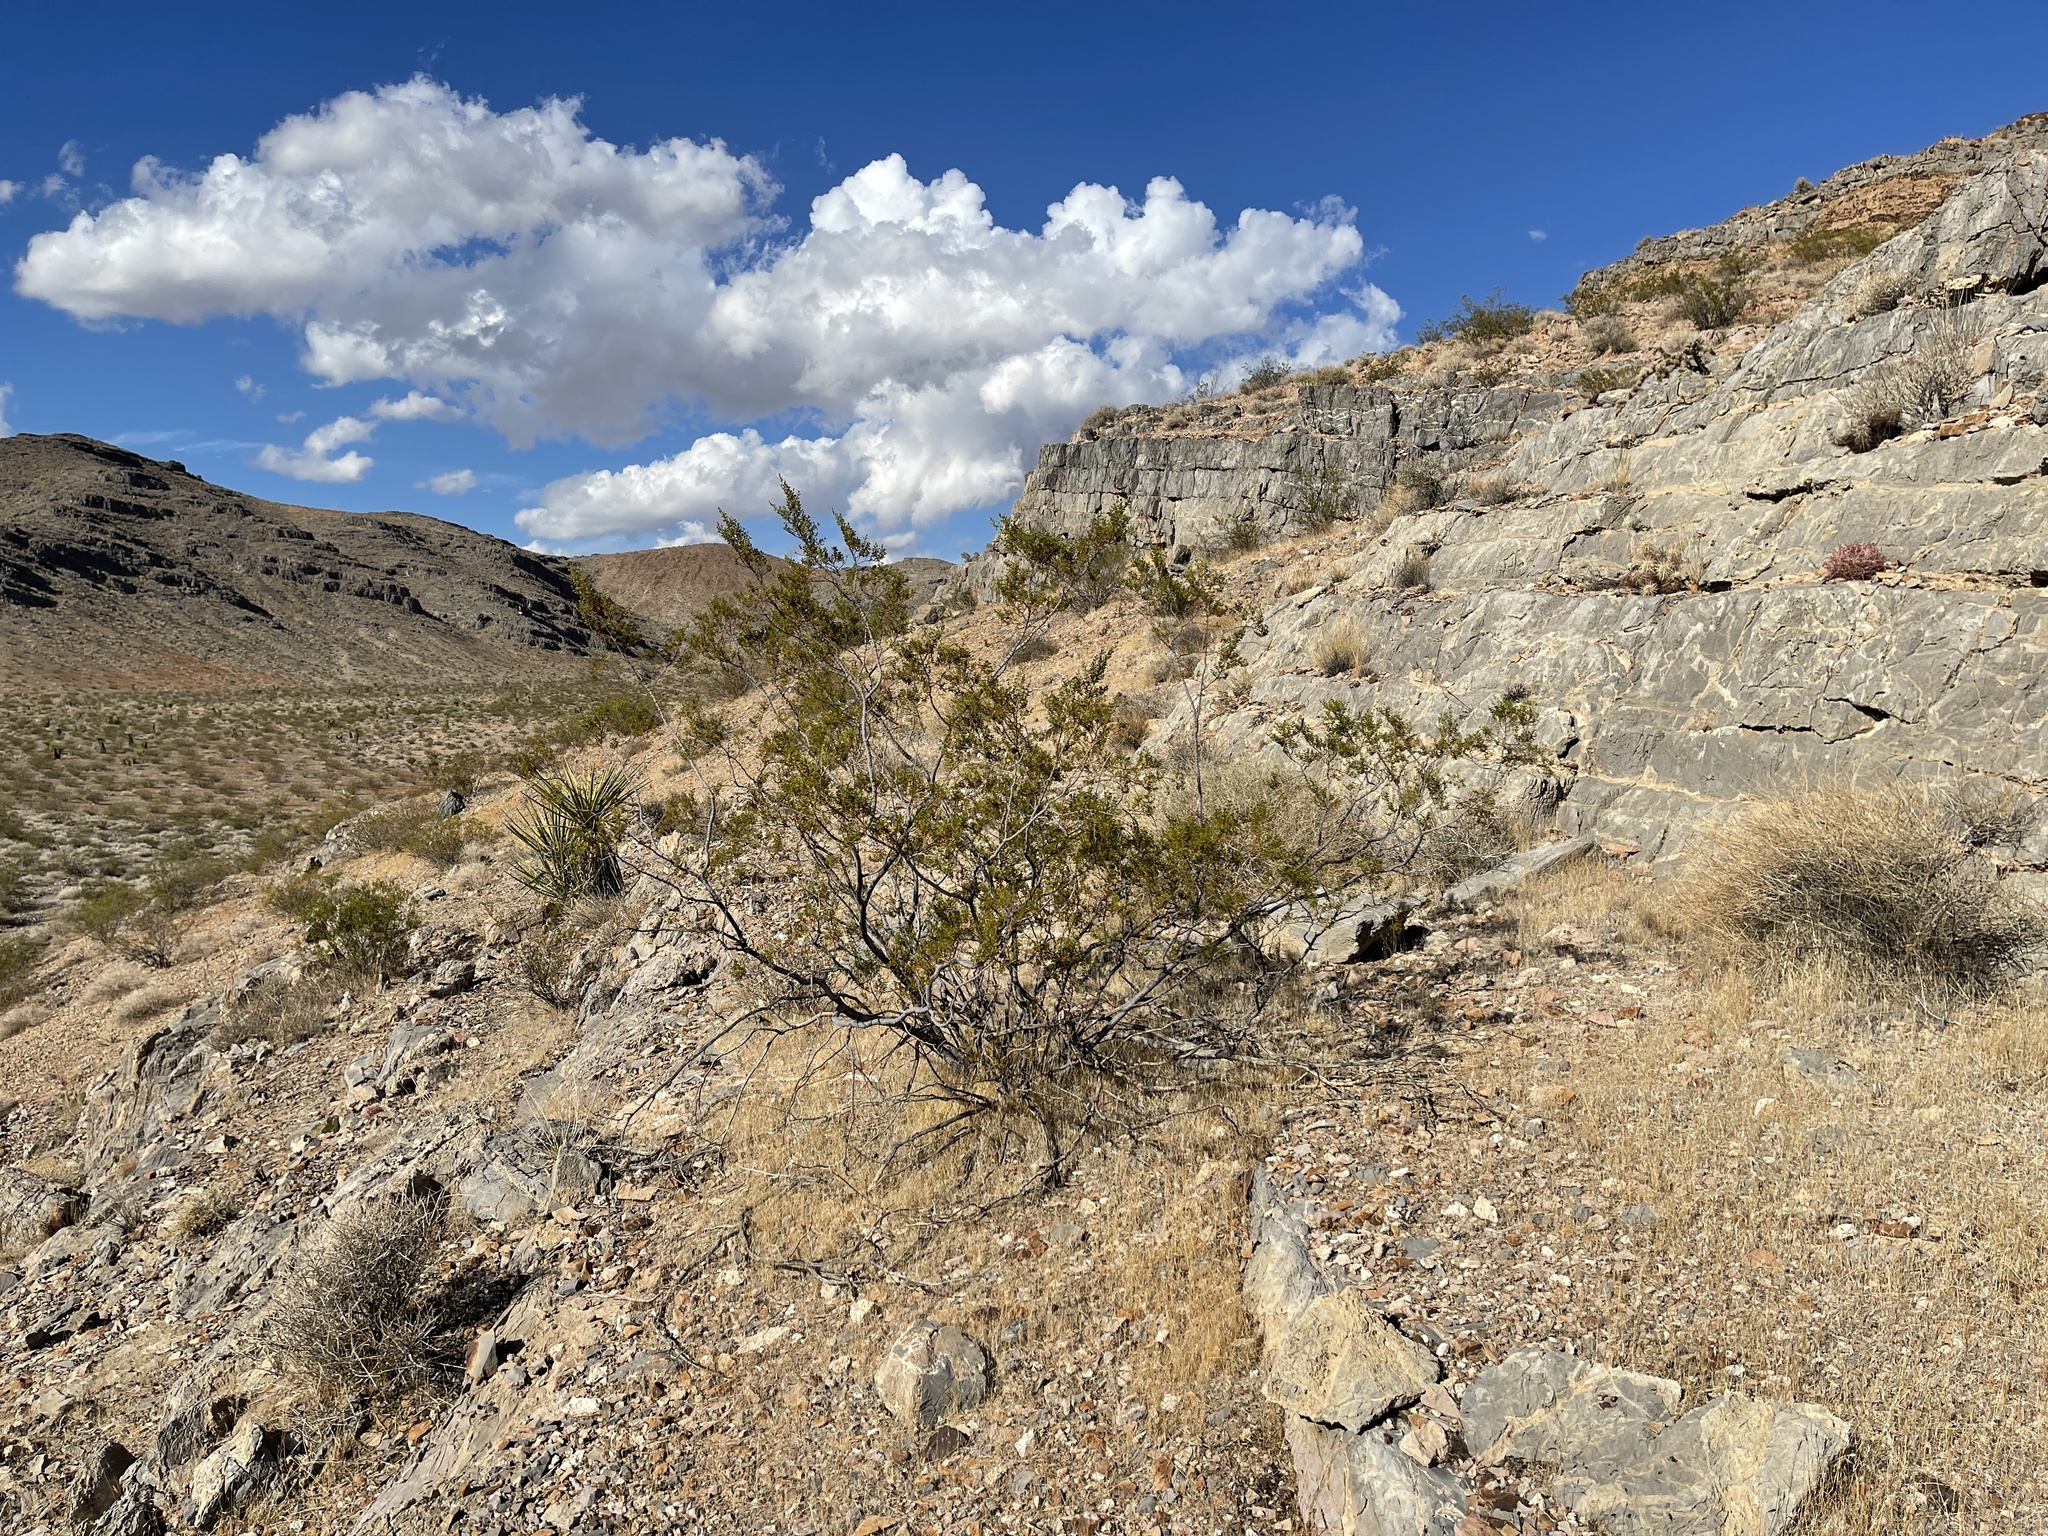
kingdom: Plantae
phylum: Tracheophyta
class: Magnoliopsida
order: Zygophyllales
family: Zygophyllaceae
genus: Larrea
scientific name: Larrea tridentata
